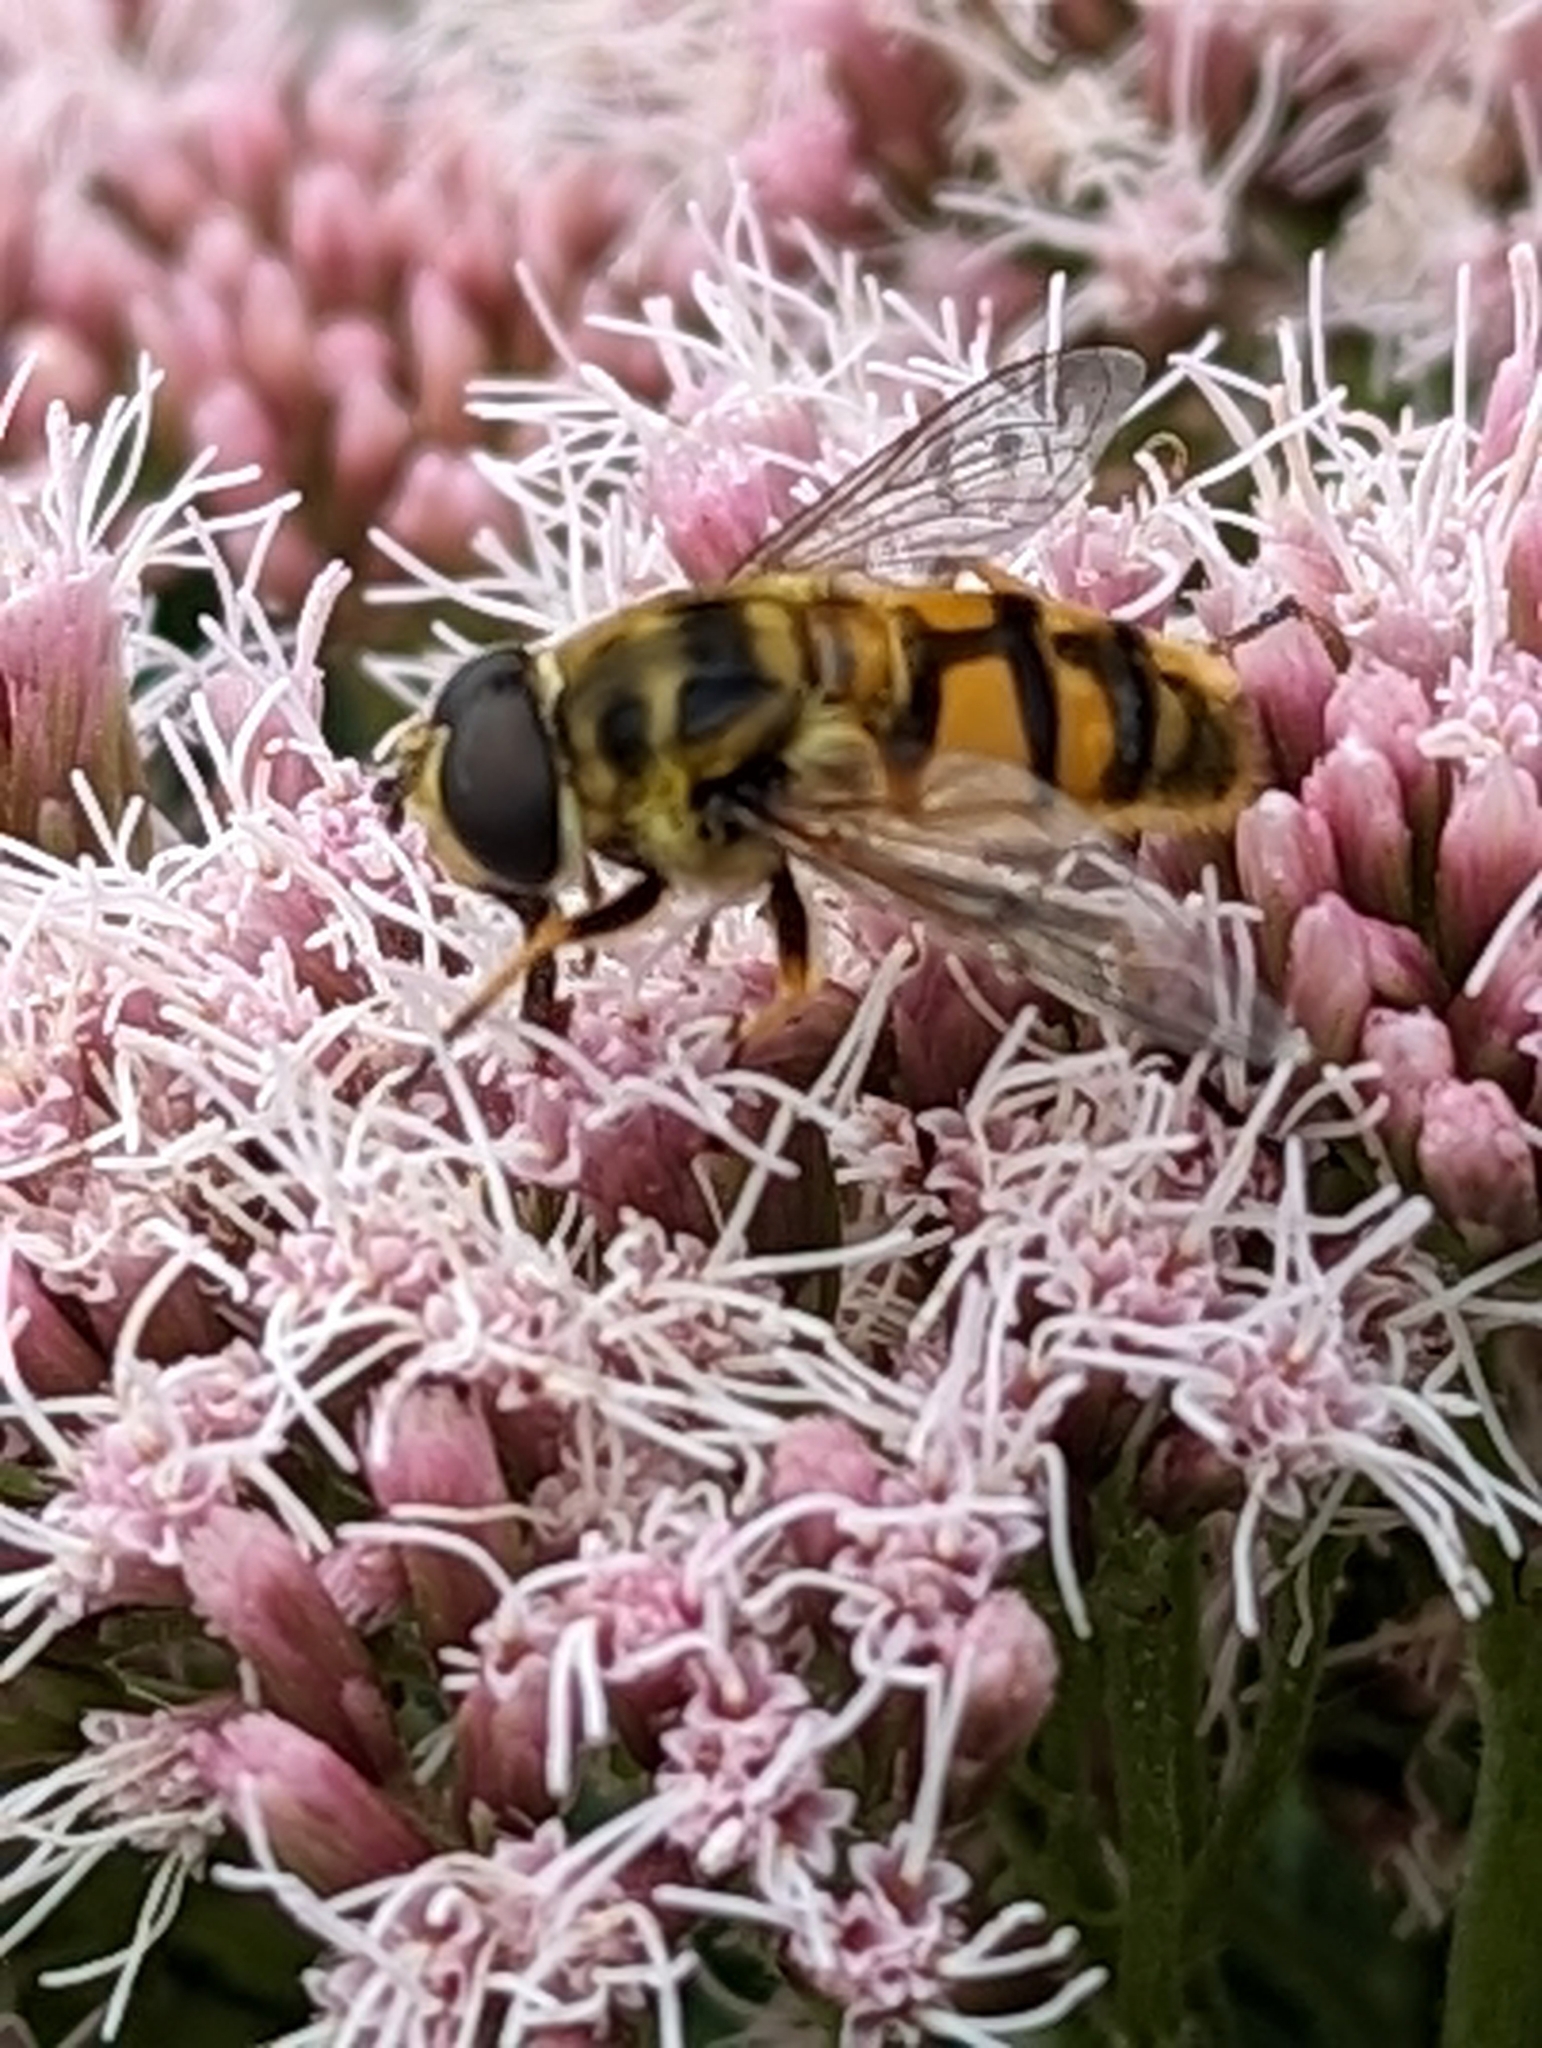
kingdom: Animalia
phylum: Arthropoda
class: Insecta
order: Diptera
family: Syrphidae
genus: Myathropa
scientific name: Myathropa florea
